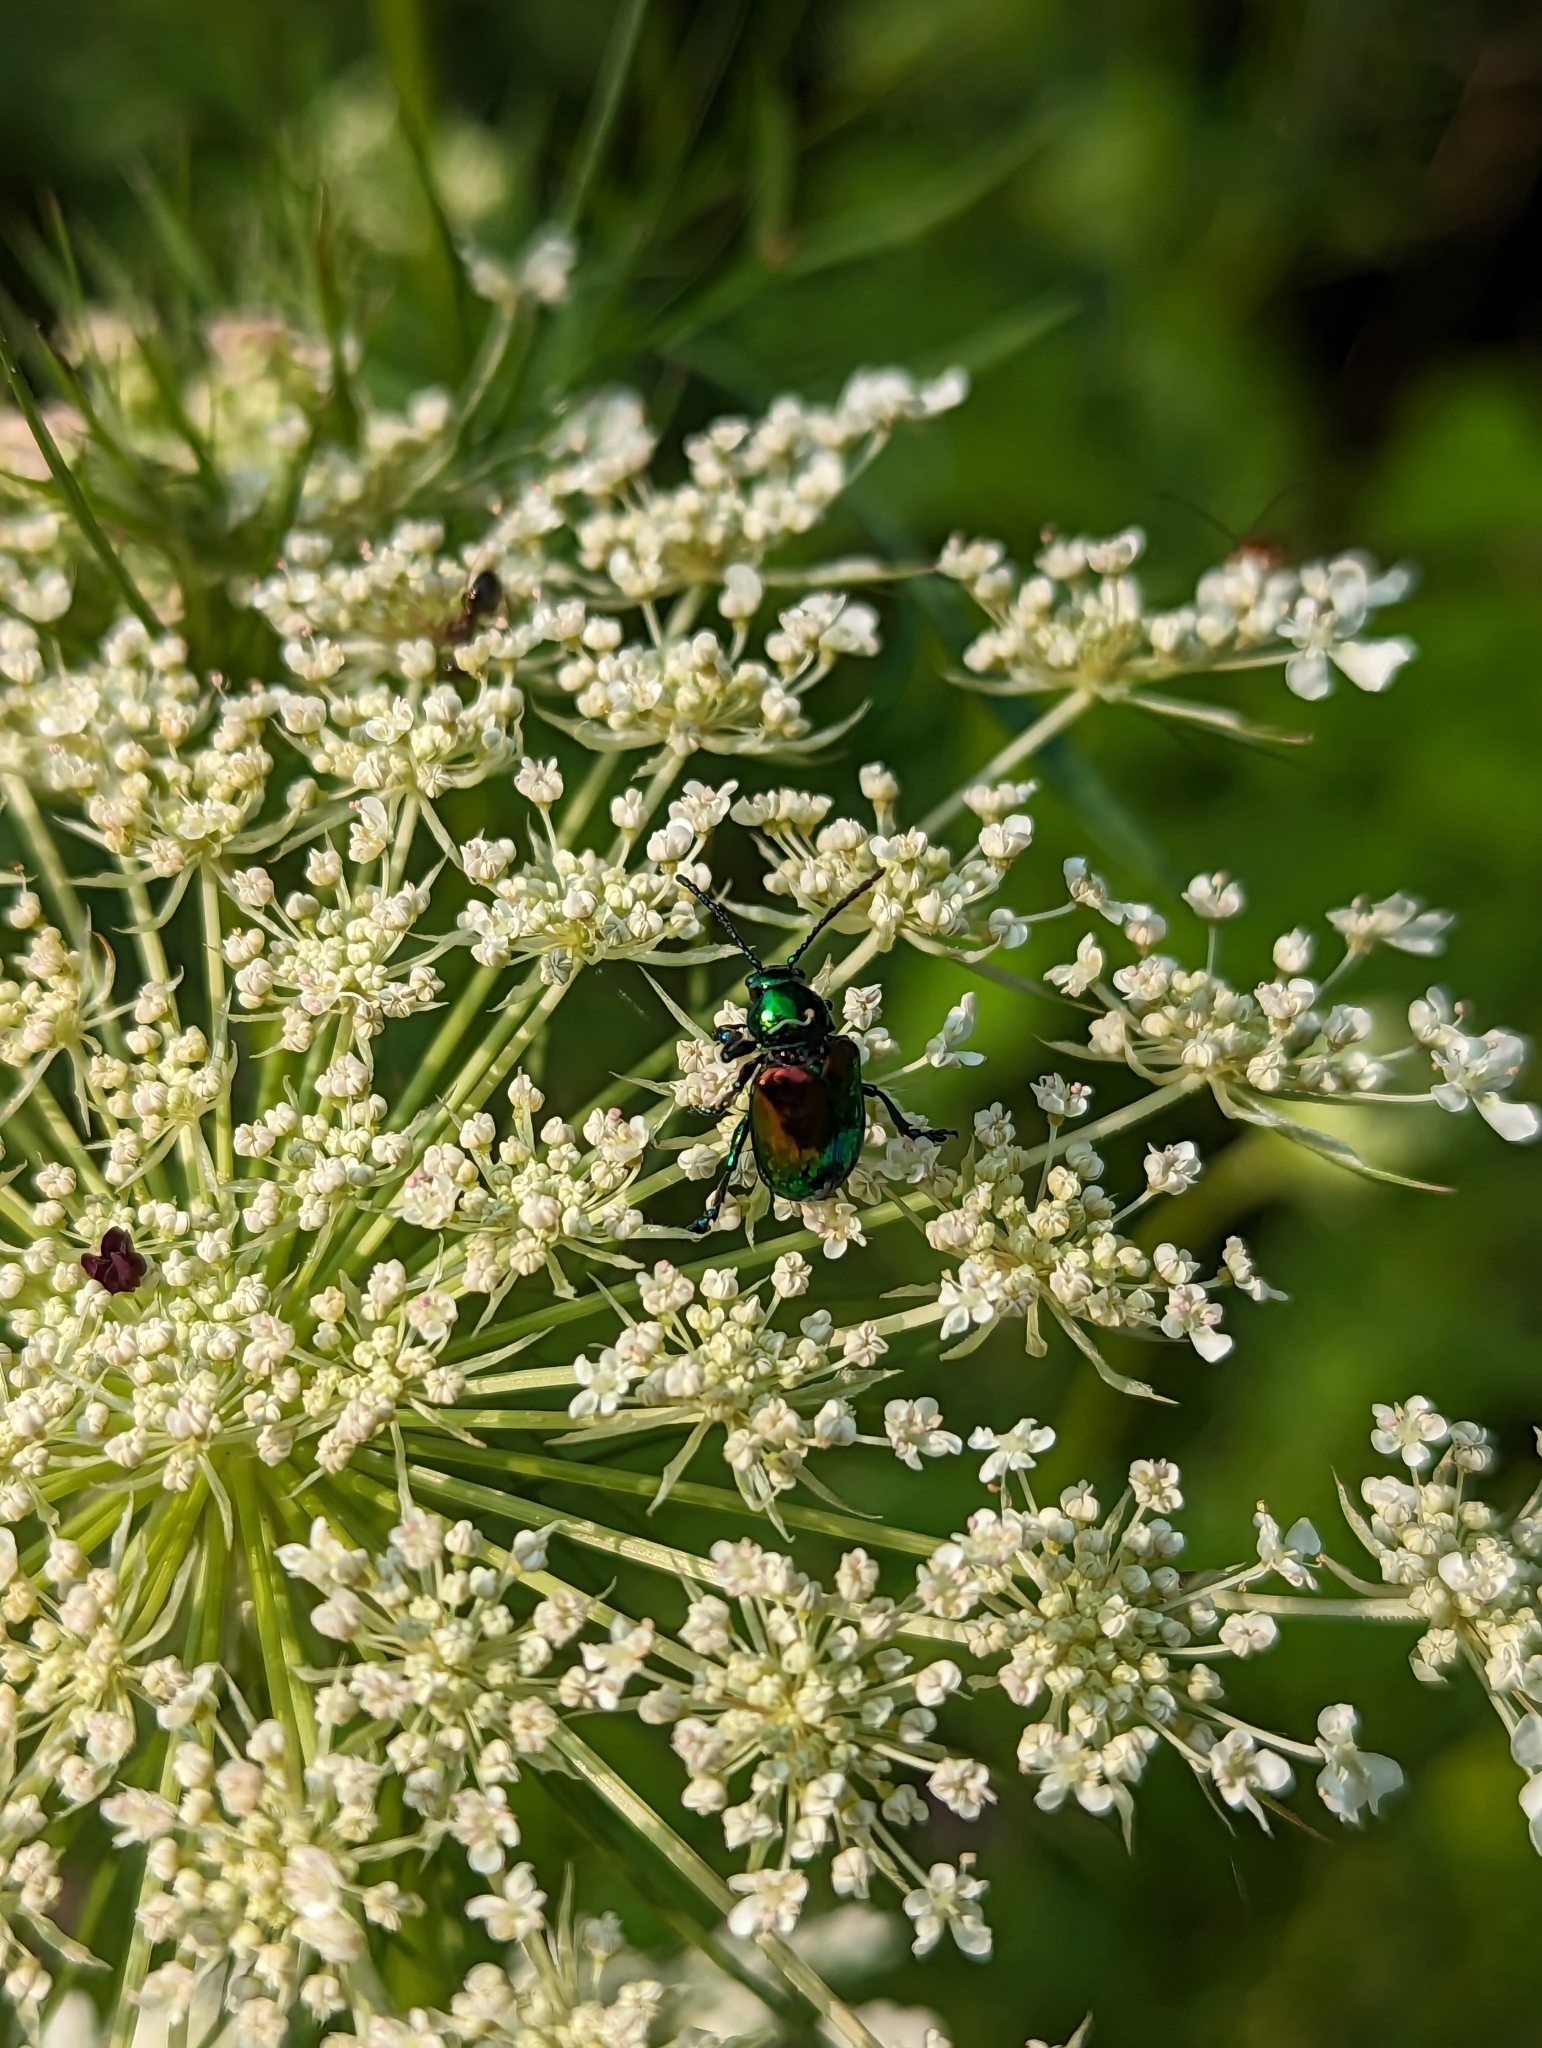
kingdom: Animalia
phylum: Arthropoda
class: Insecta
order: Coleoptera
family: Chrysomelidae
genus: Chrysochus
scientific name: Chrysochus auratus
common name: Dogbane leaf beetle
